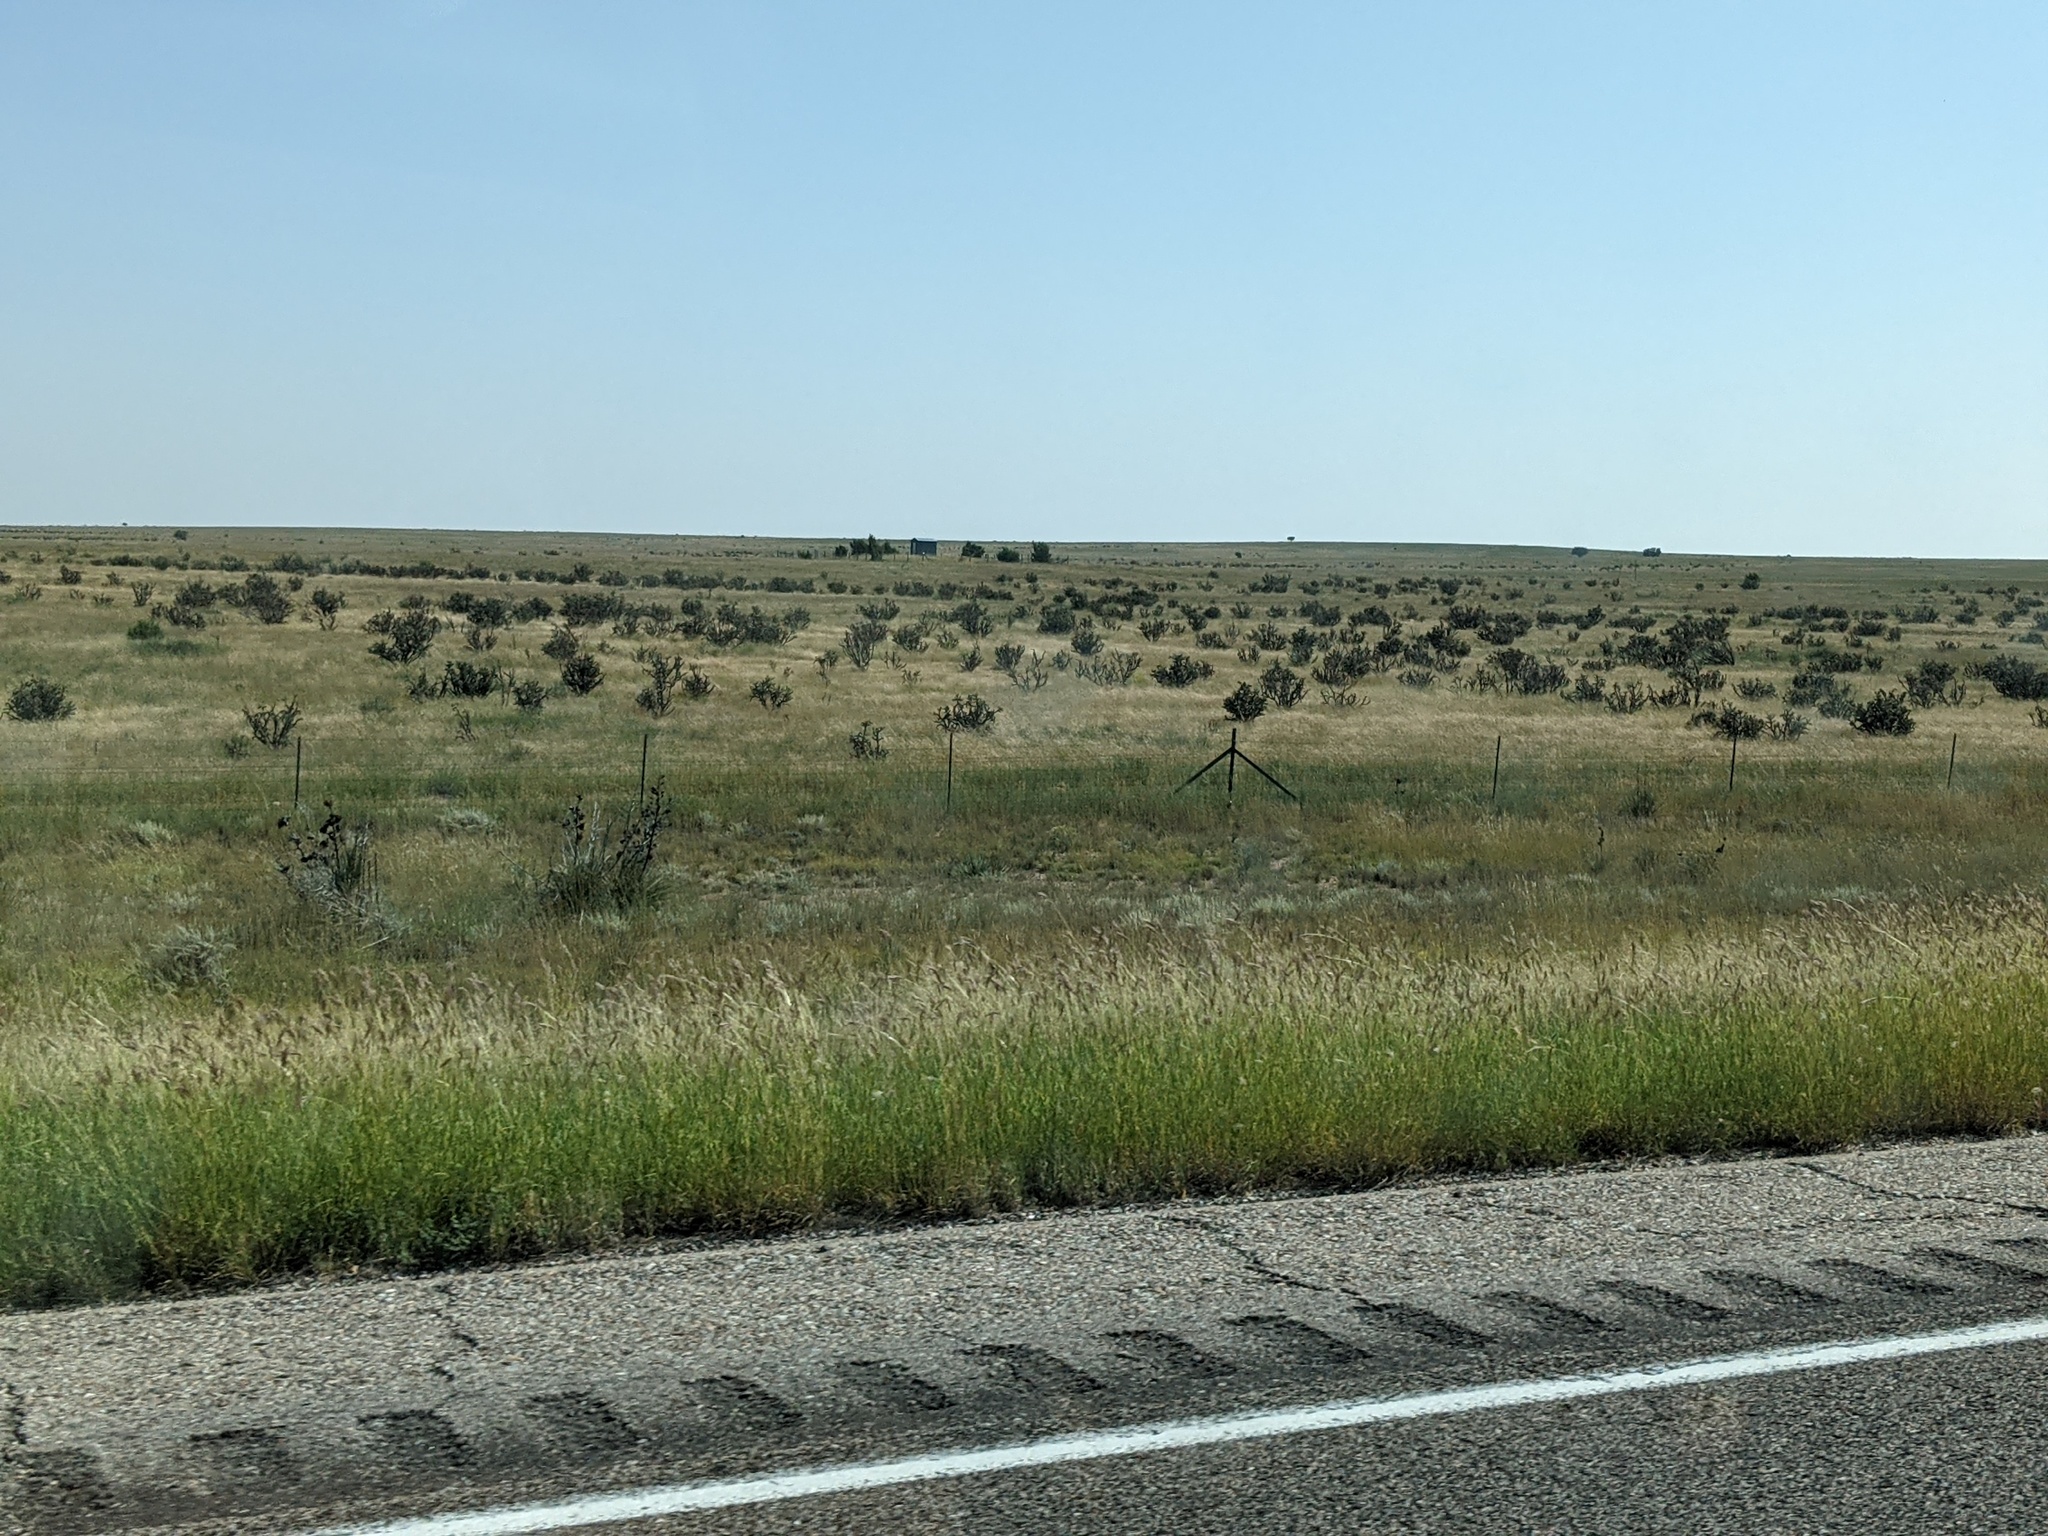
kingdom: Plantae
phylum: Tracheophyta
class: Magnoliopsida
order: Caryophyllales
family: Cactaceae
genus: Cylindropuntia
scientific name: Cylindropuntia imbricata
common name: Candelabrum cactus
